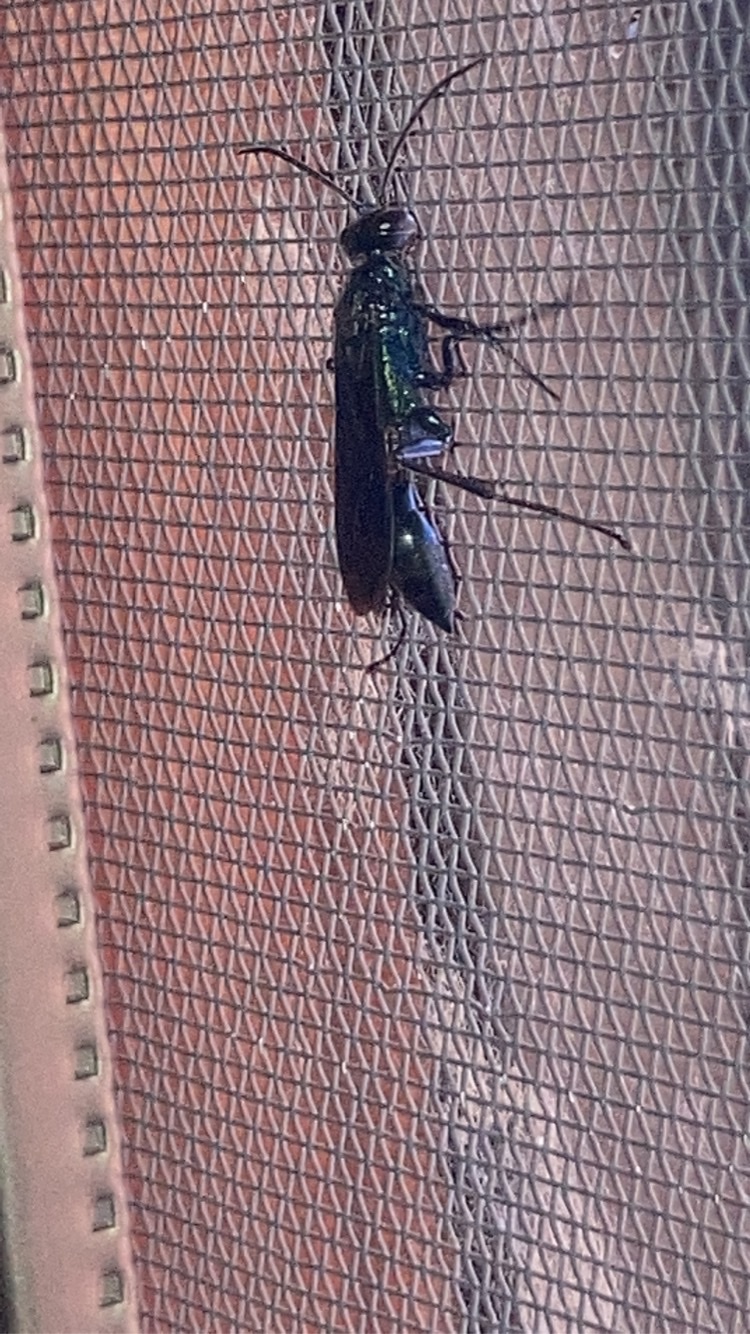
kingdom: Animalia
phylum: Arthropoda
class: Insecta
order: Hymenoptera
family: Sphecidae
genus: Chalybion
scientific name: Chalybion californicum
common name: Mud dauber
